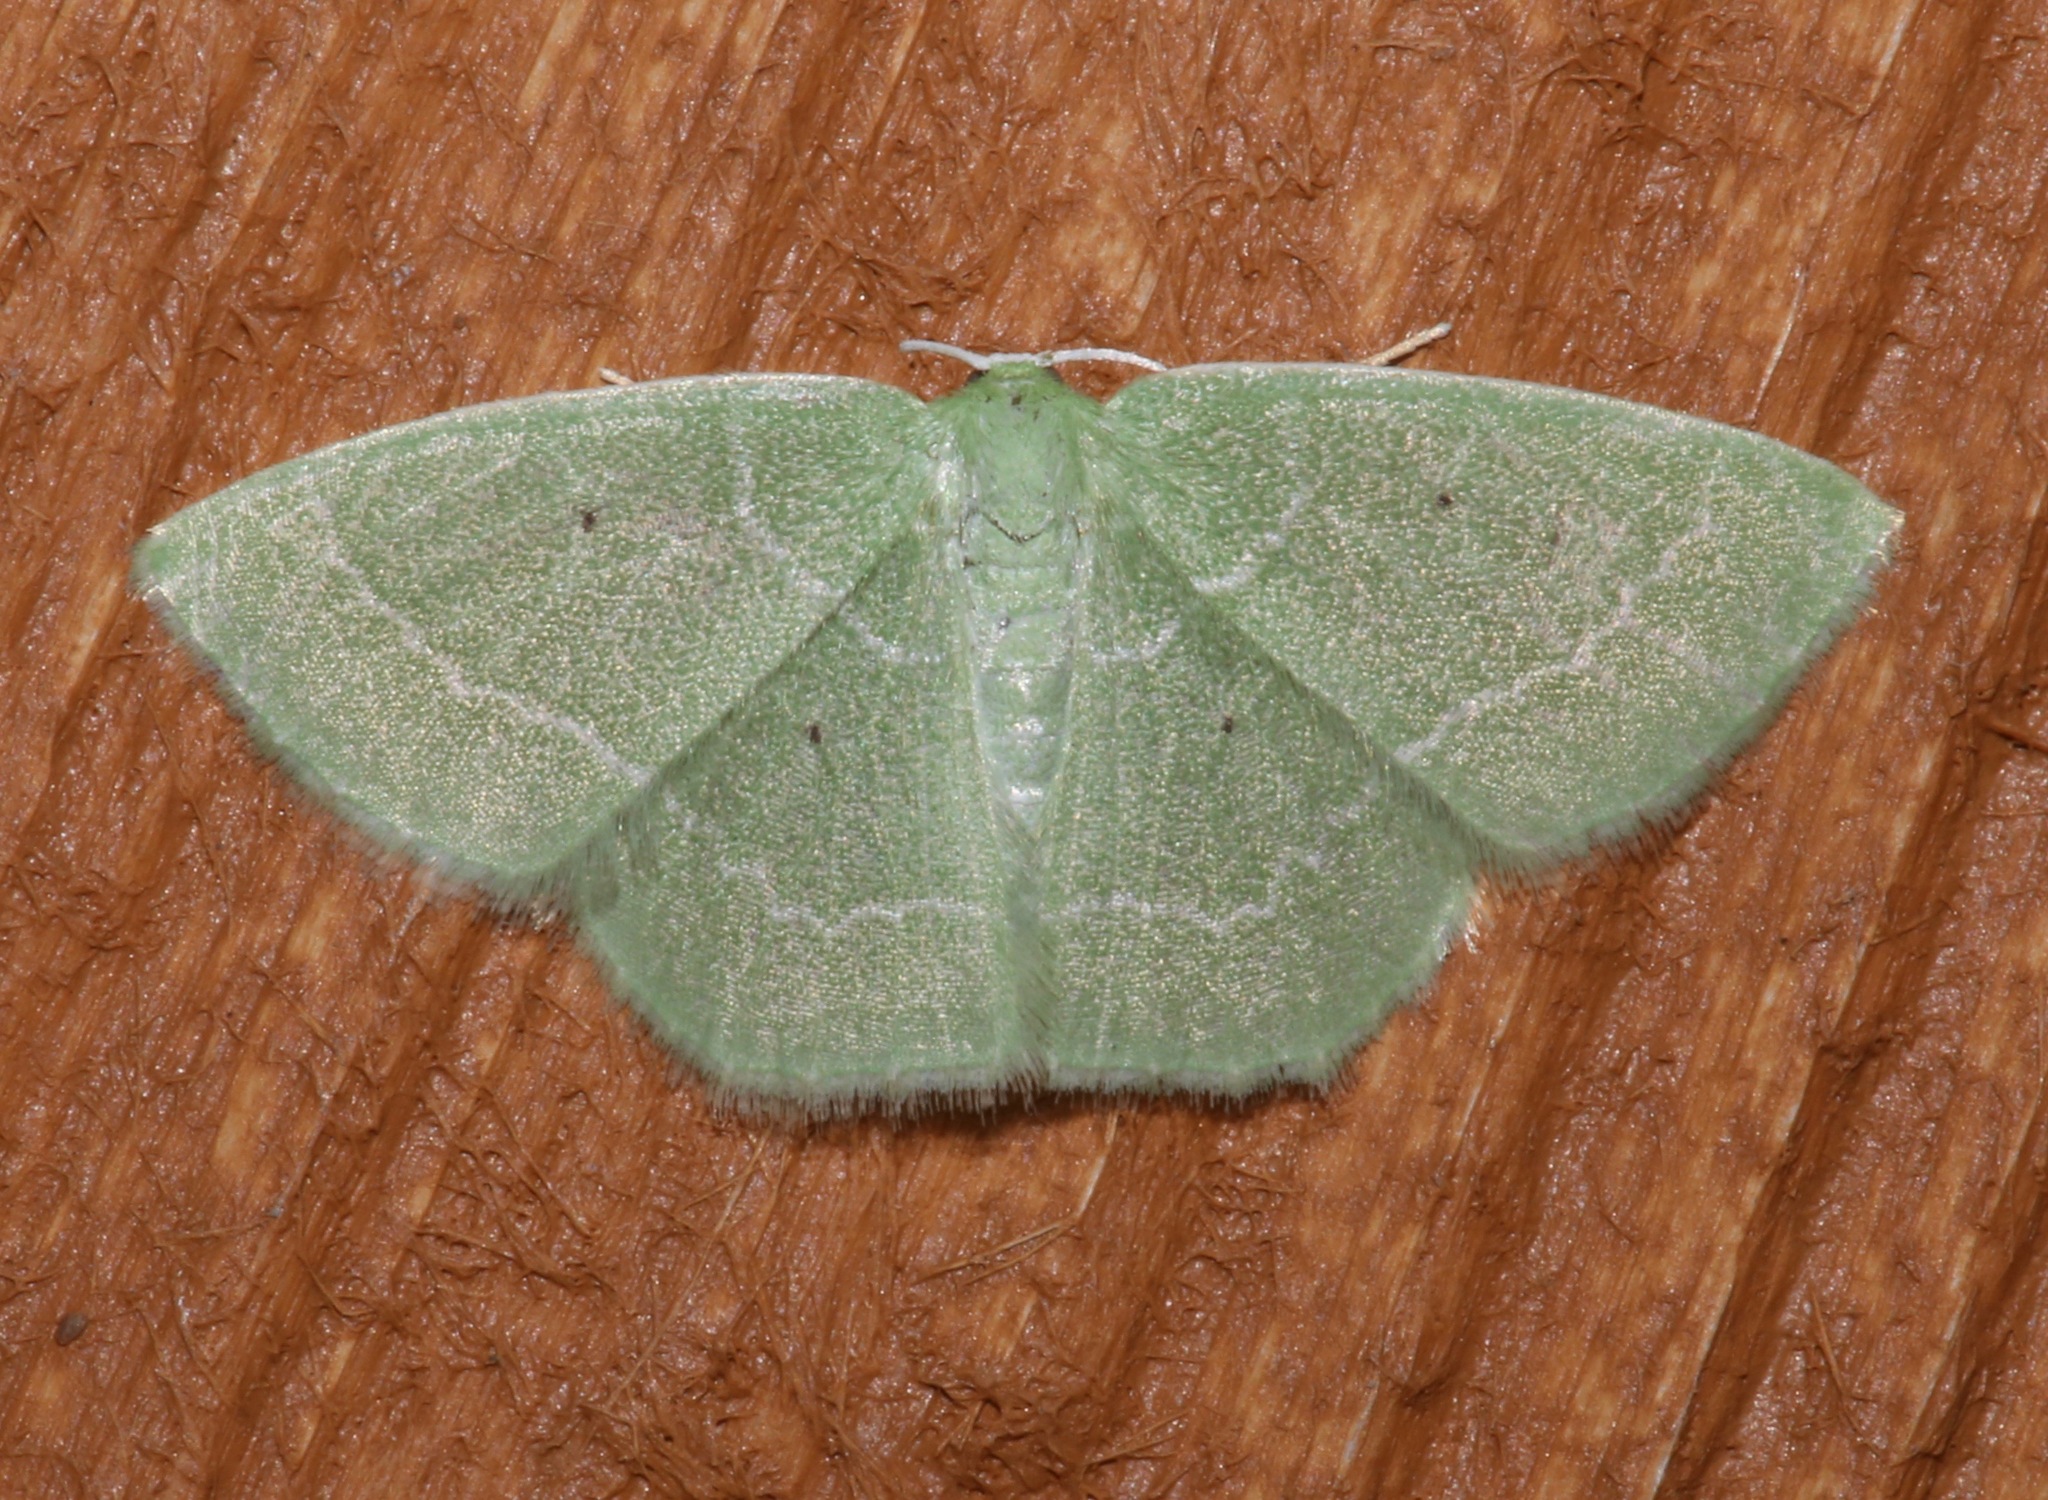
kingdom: Animalia
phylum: Arthropoda
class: Insecta
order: Lepidoptera
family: Geometridae
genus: Nemoria
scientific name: Nemoria elfa
